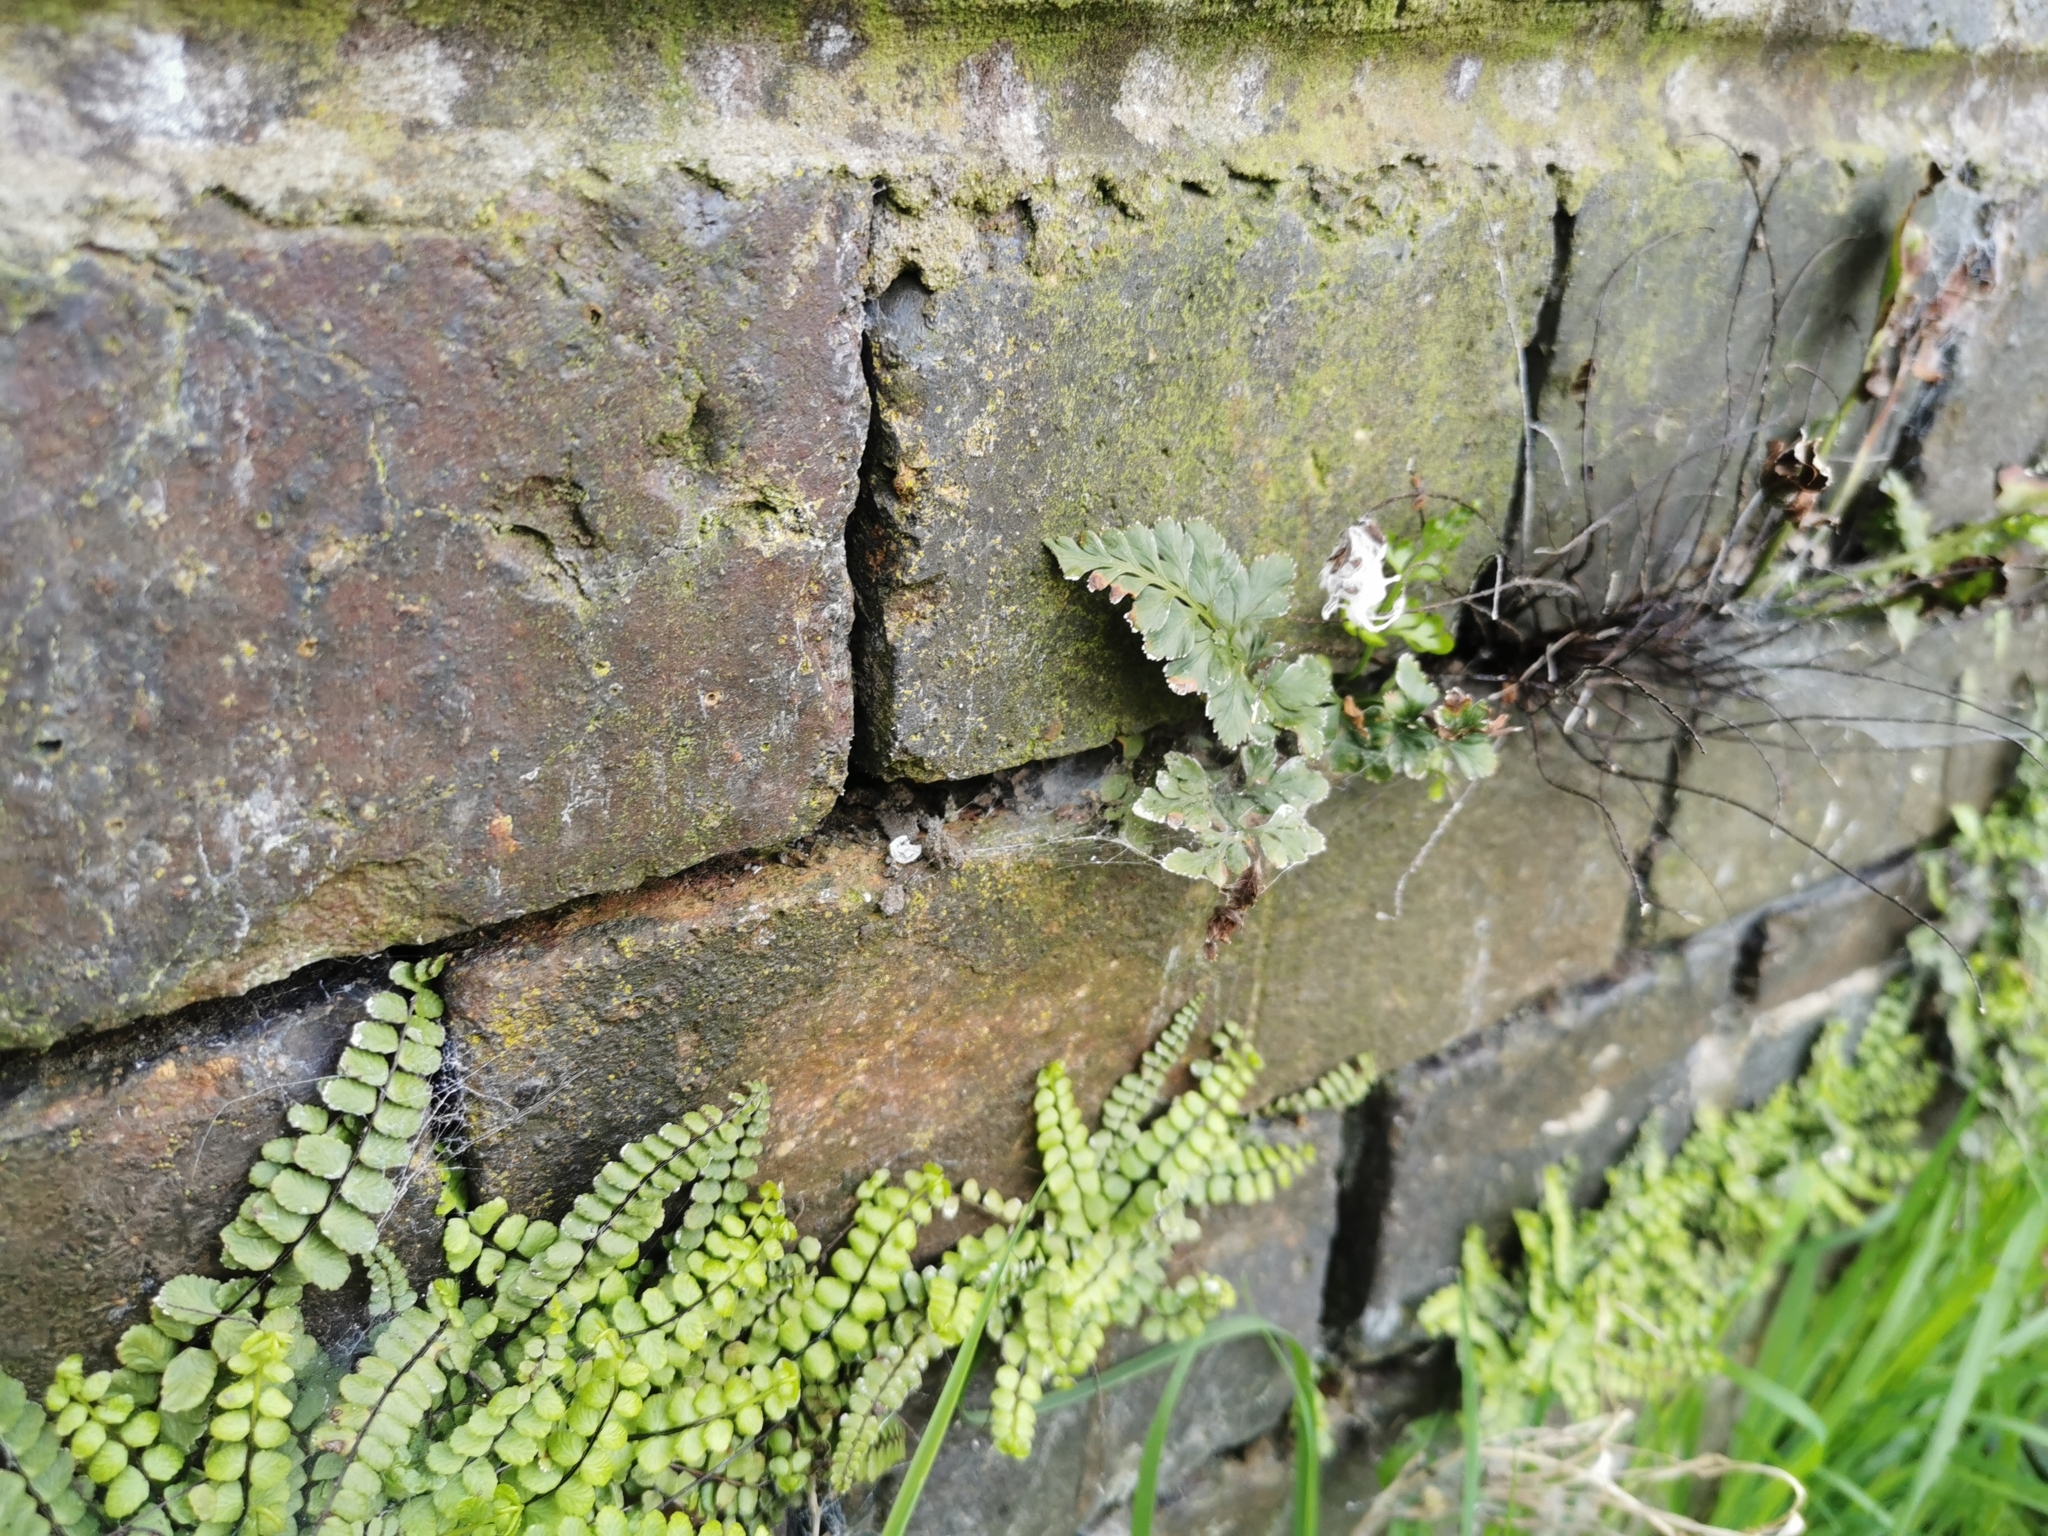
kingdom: Plantae
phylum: Tracheophyta
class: Polypodiopsida
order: Polypodiales
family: Aspleniaceae
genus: Asplenium
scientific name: Asplenium adiantum-nigrum
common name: Black spleenwort
